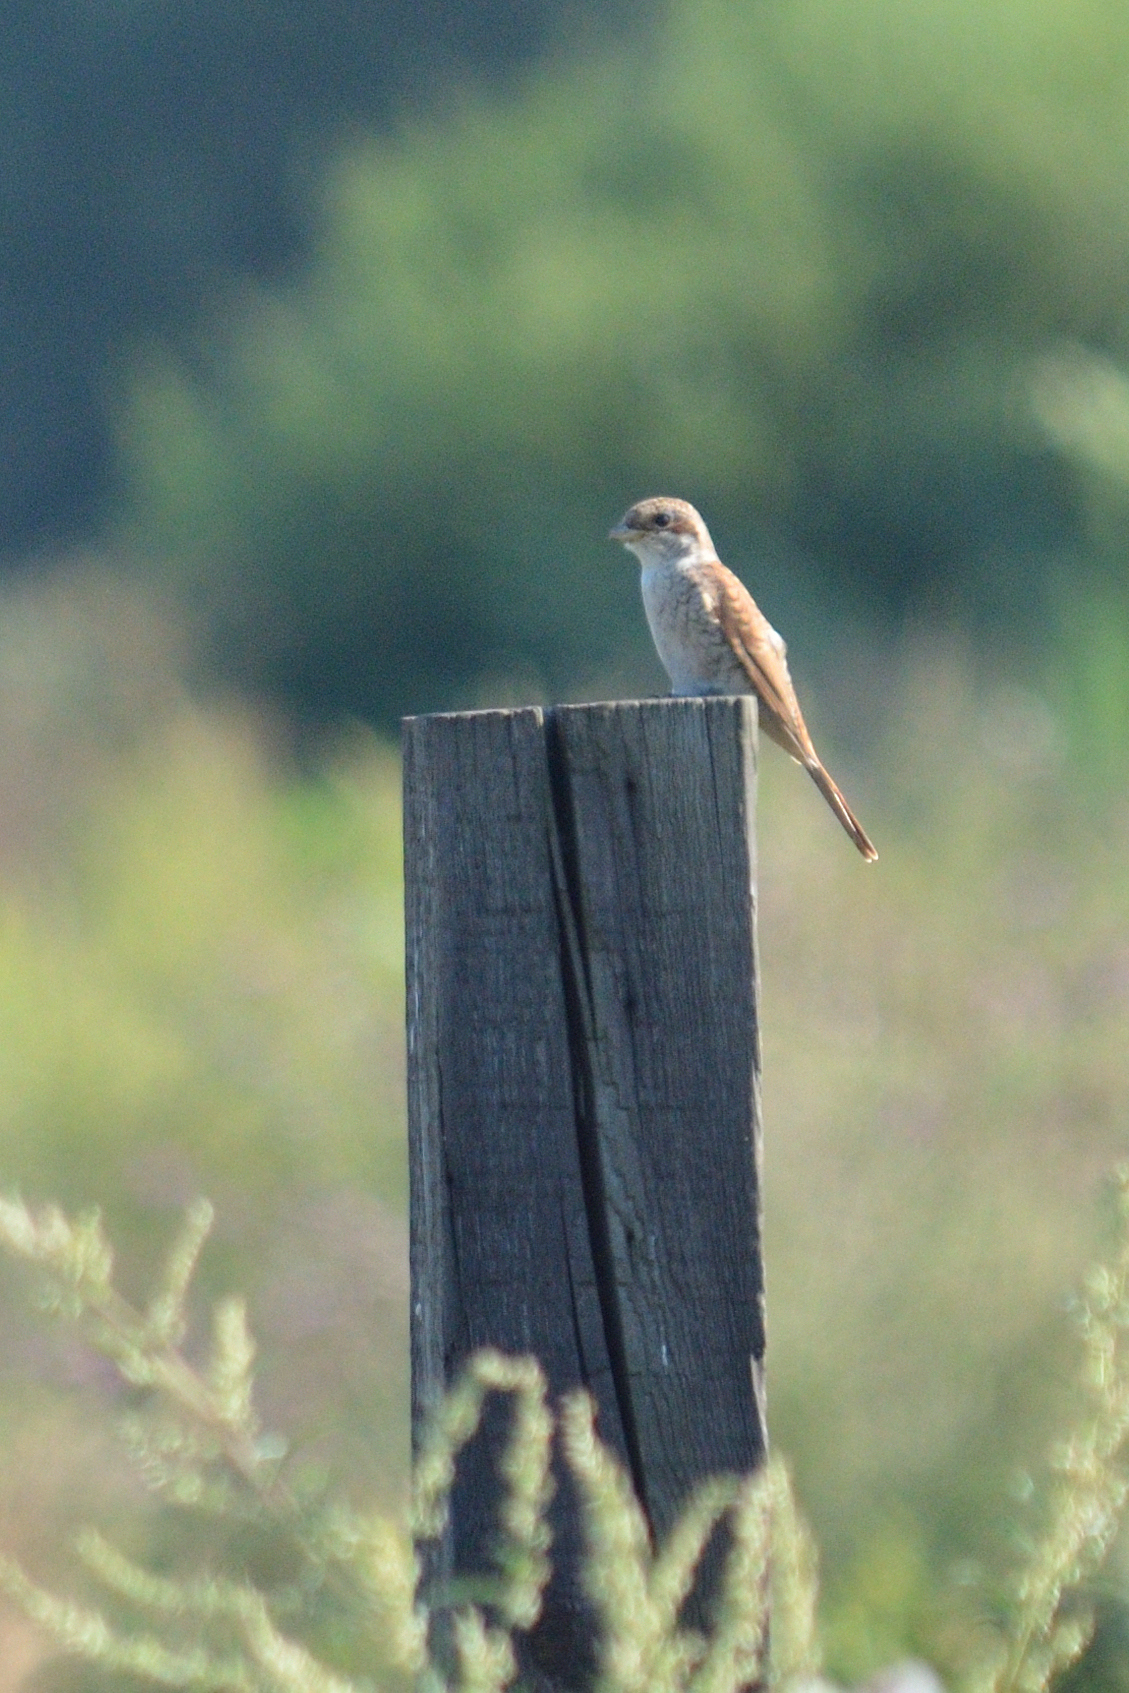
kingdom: Animalia
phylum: Chordata
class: Aves
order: Passeriformes
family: Laniidae
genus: Lanius
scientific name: Lanius collurio
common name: Red-backed shrike
